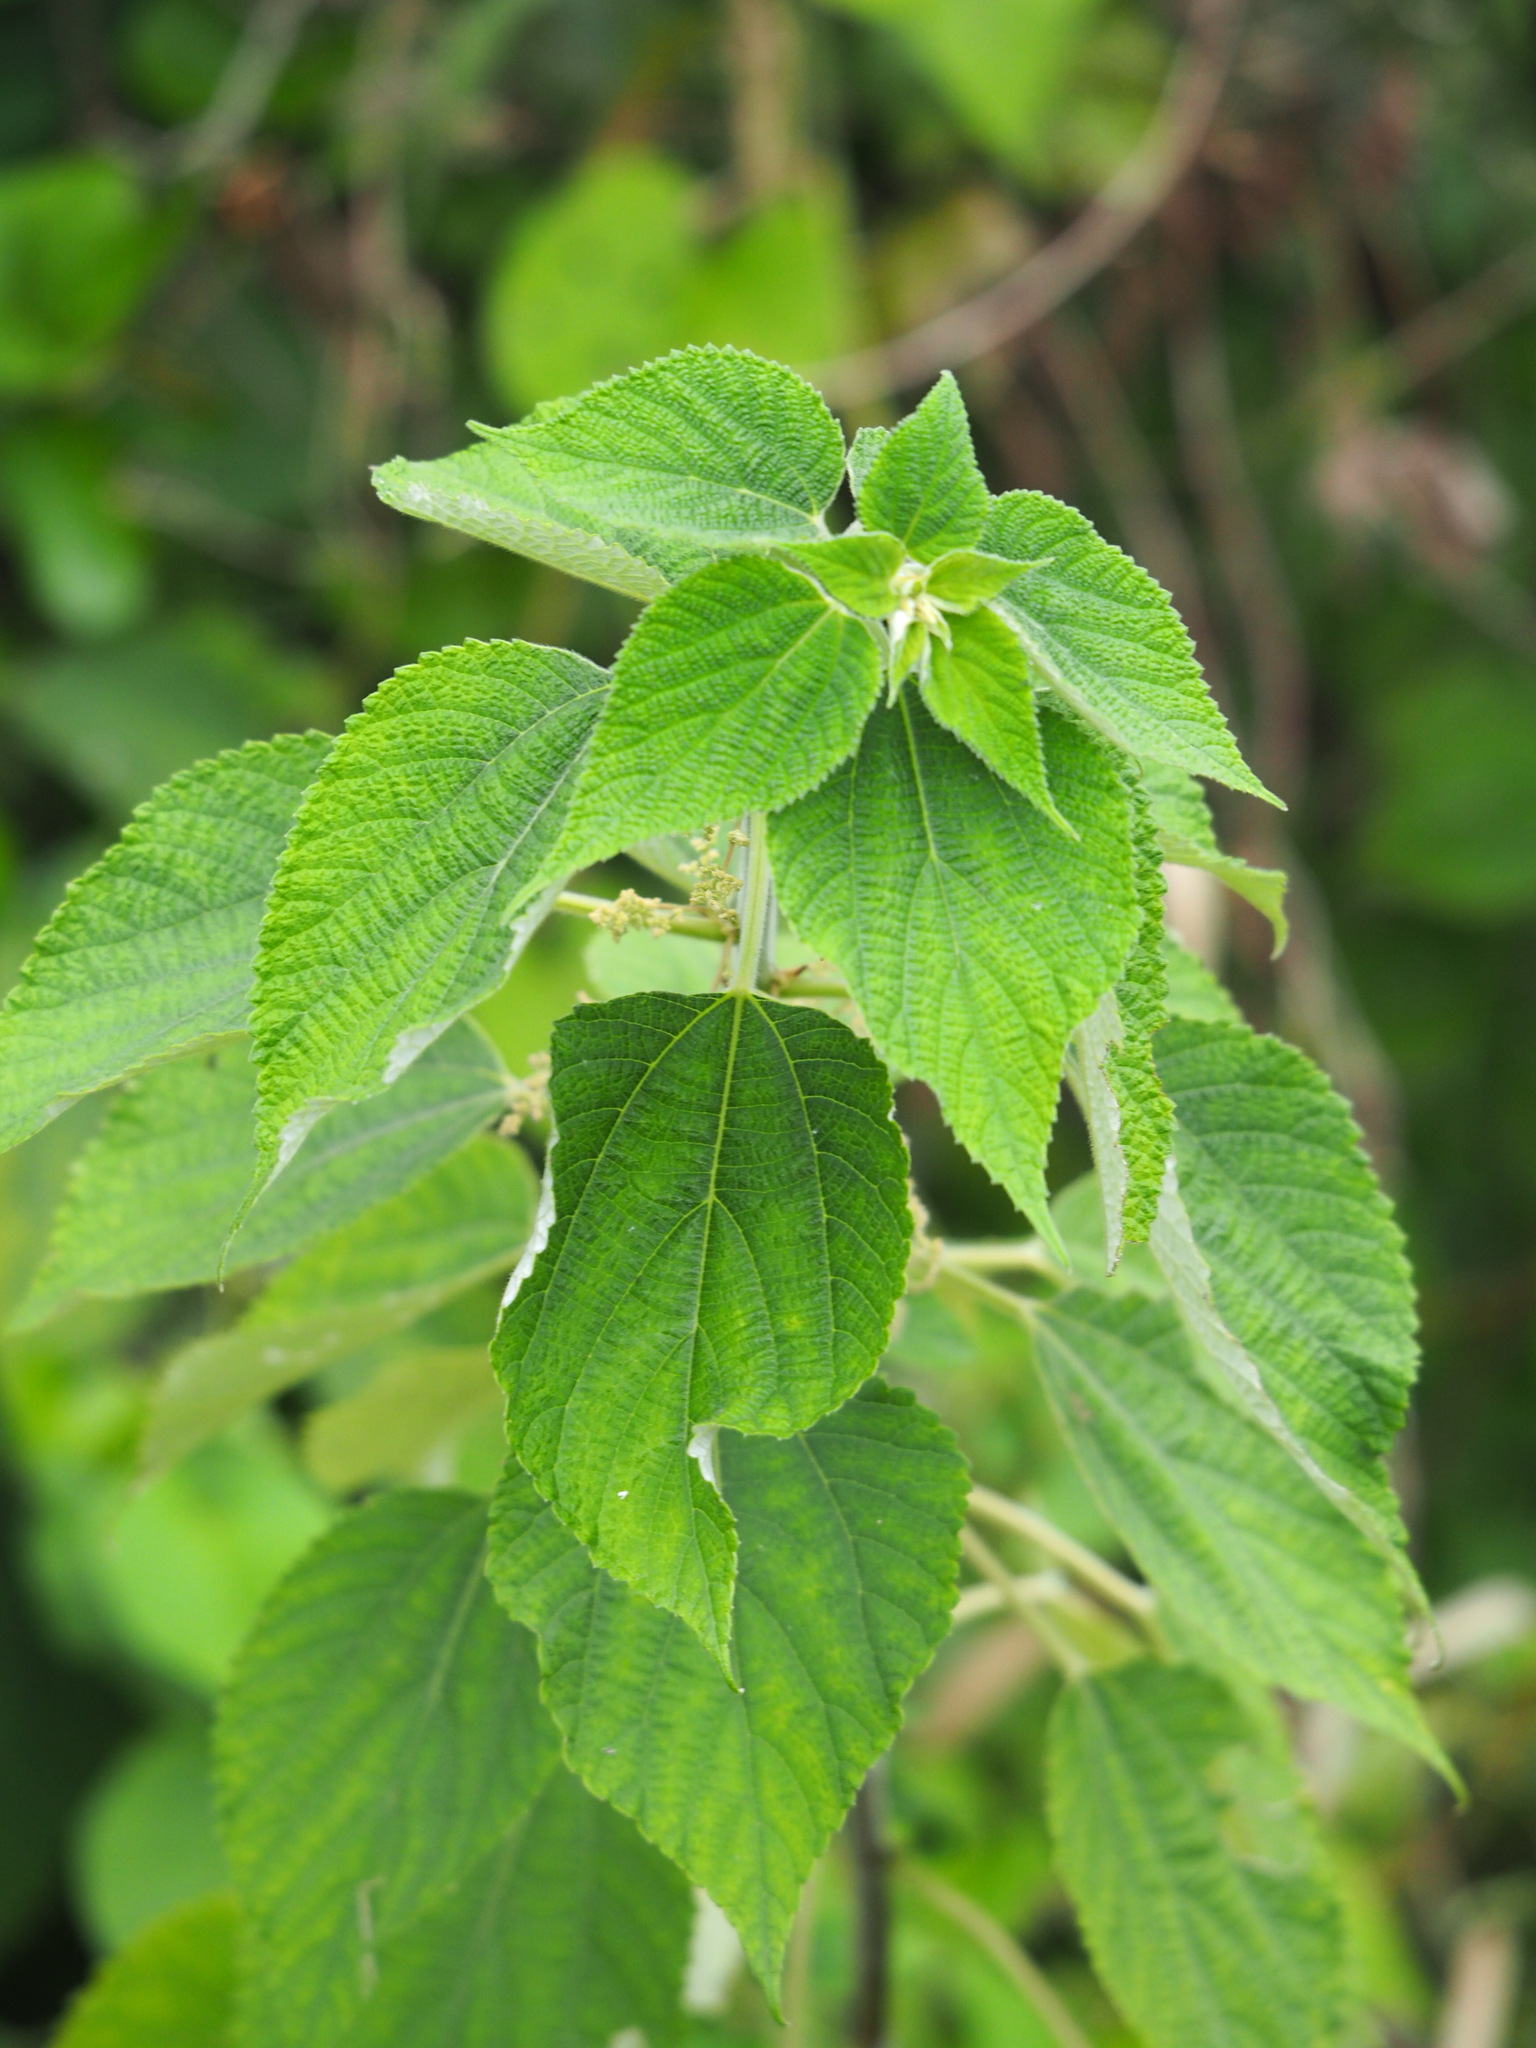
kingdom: Plantae
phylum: Tracheophyta
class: Magnoliopsida
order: Rosales
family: Urticaceae
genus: Boehmeria
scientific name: Boehmeria nivea
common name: Ramie chinese grass
